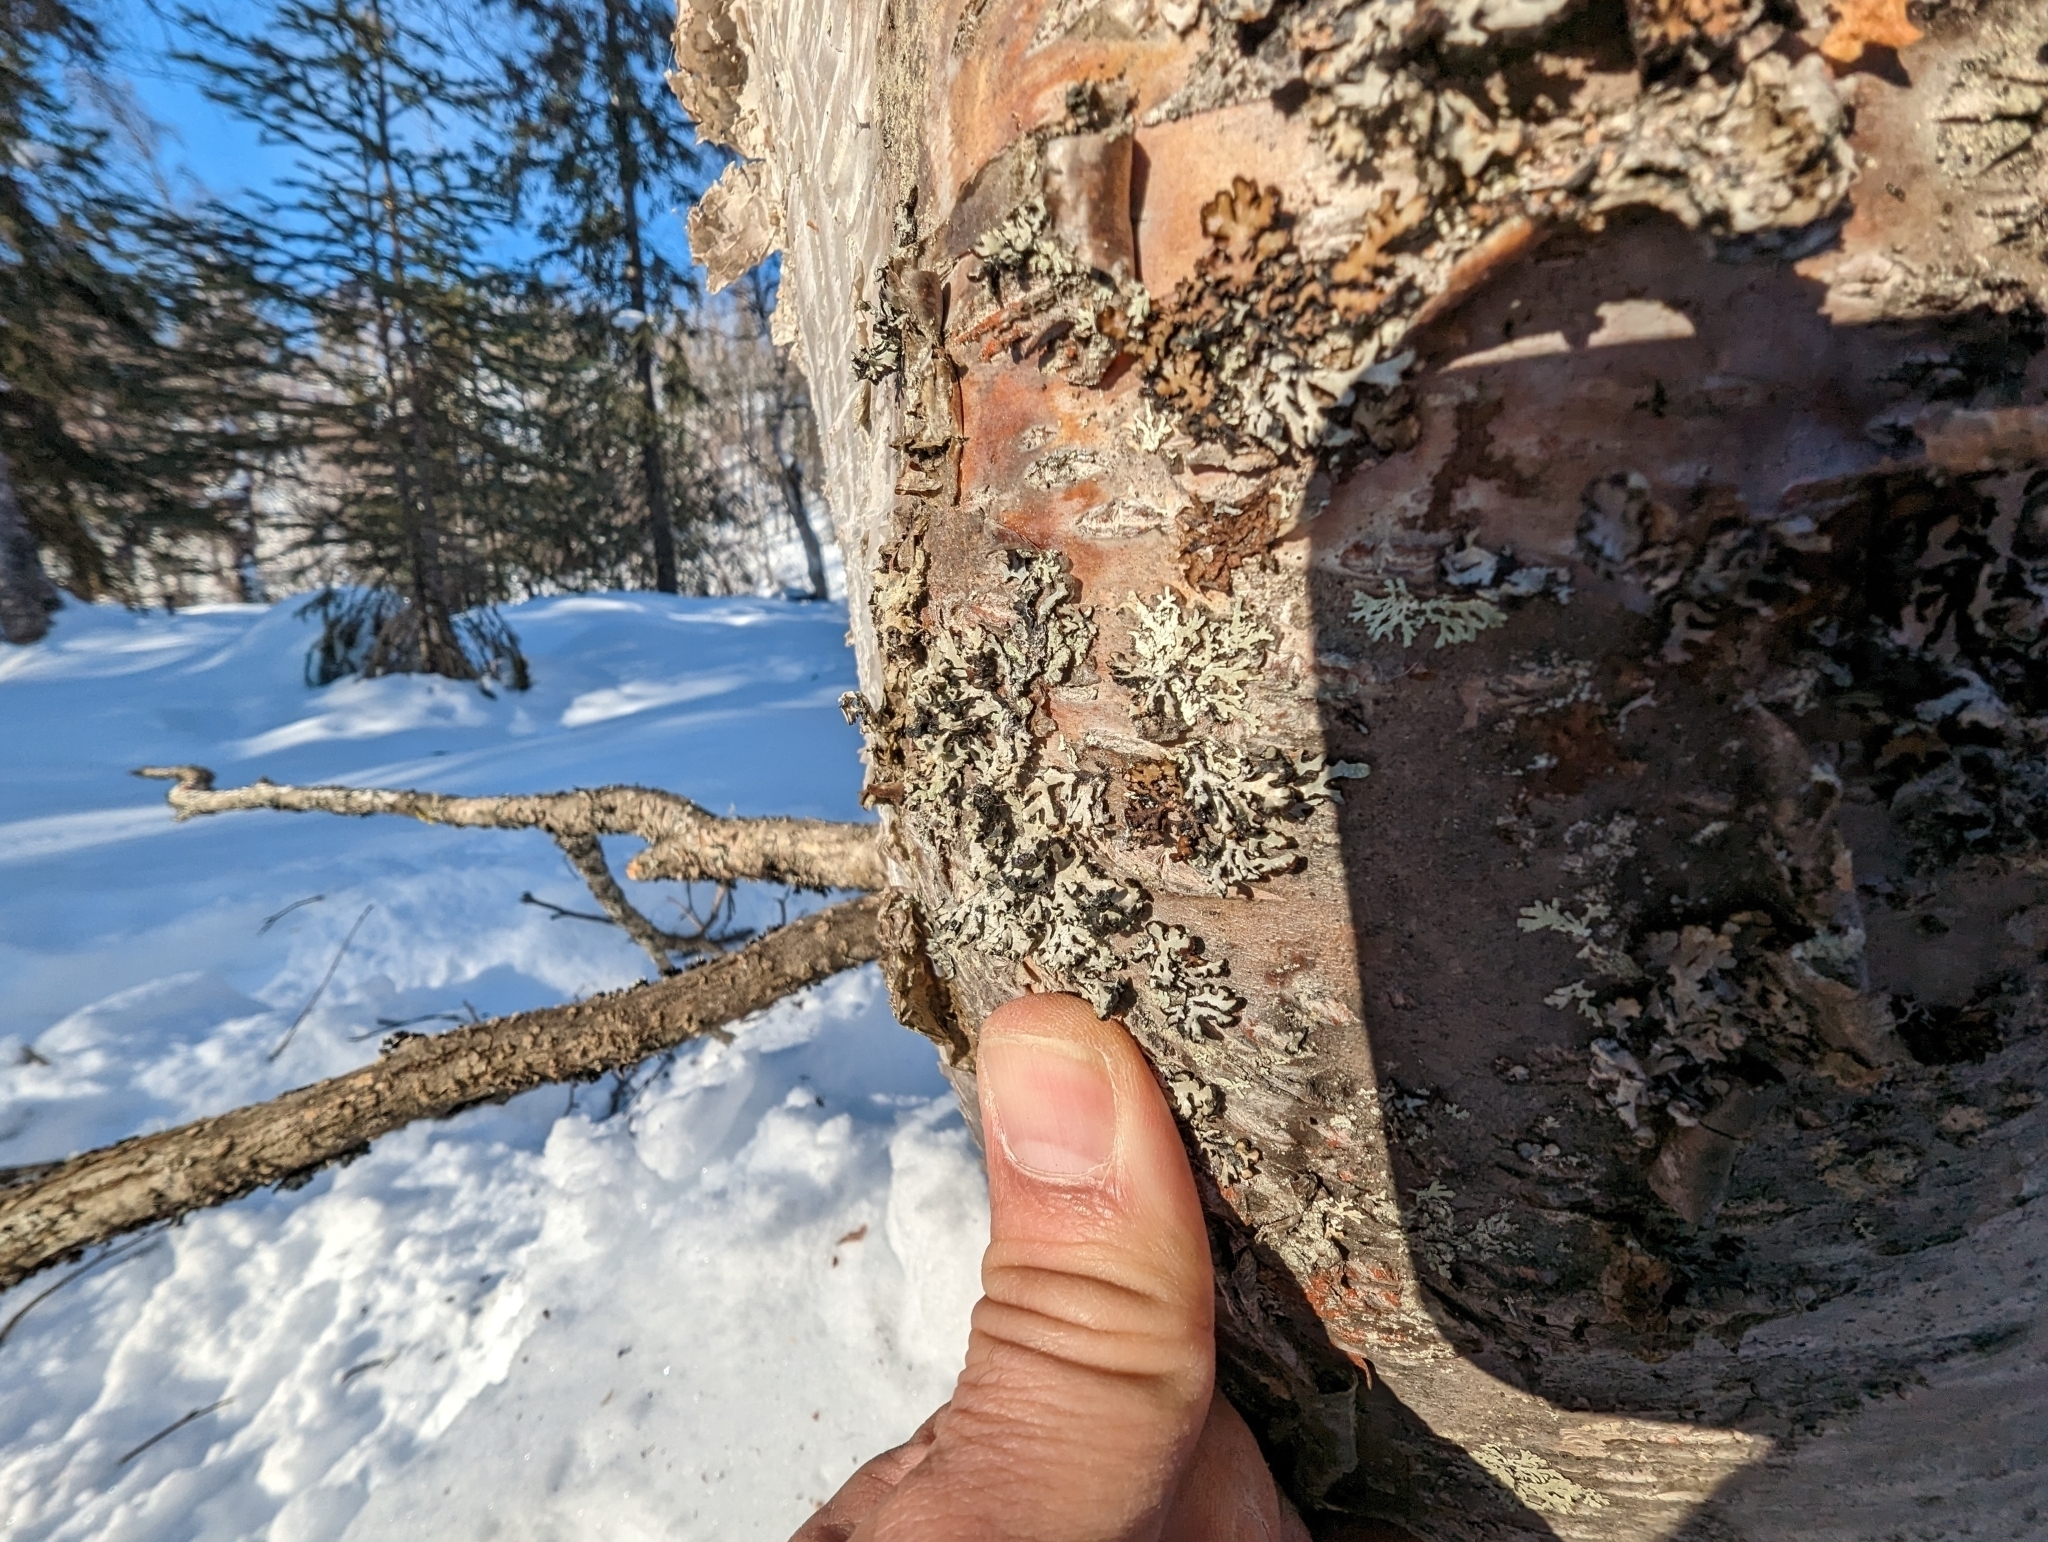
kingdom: Fungi
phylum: Ascomycota
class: Lecanoromycetes
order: Lecanorales
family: Parmeliaceae
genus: Hypogymnia
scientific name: Hypogymnia austerodes
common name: Varnished tube lichen
